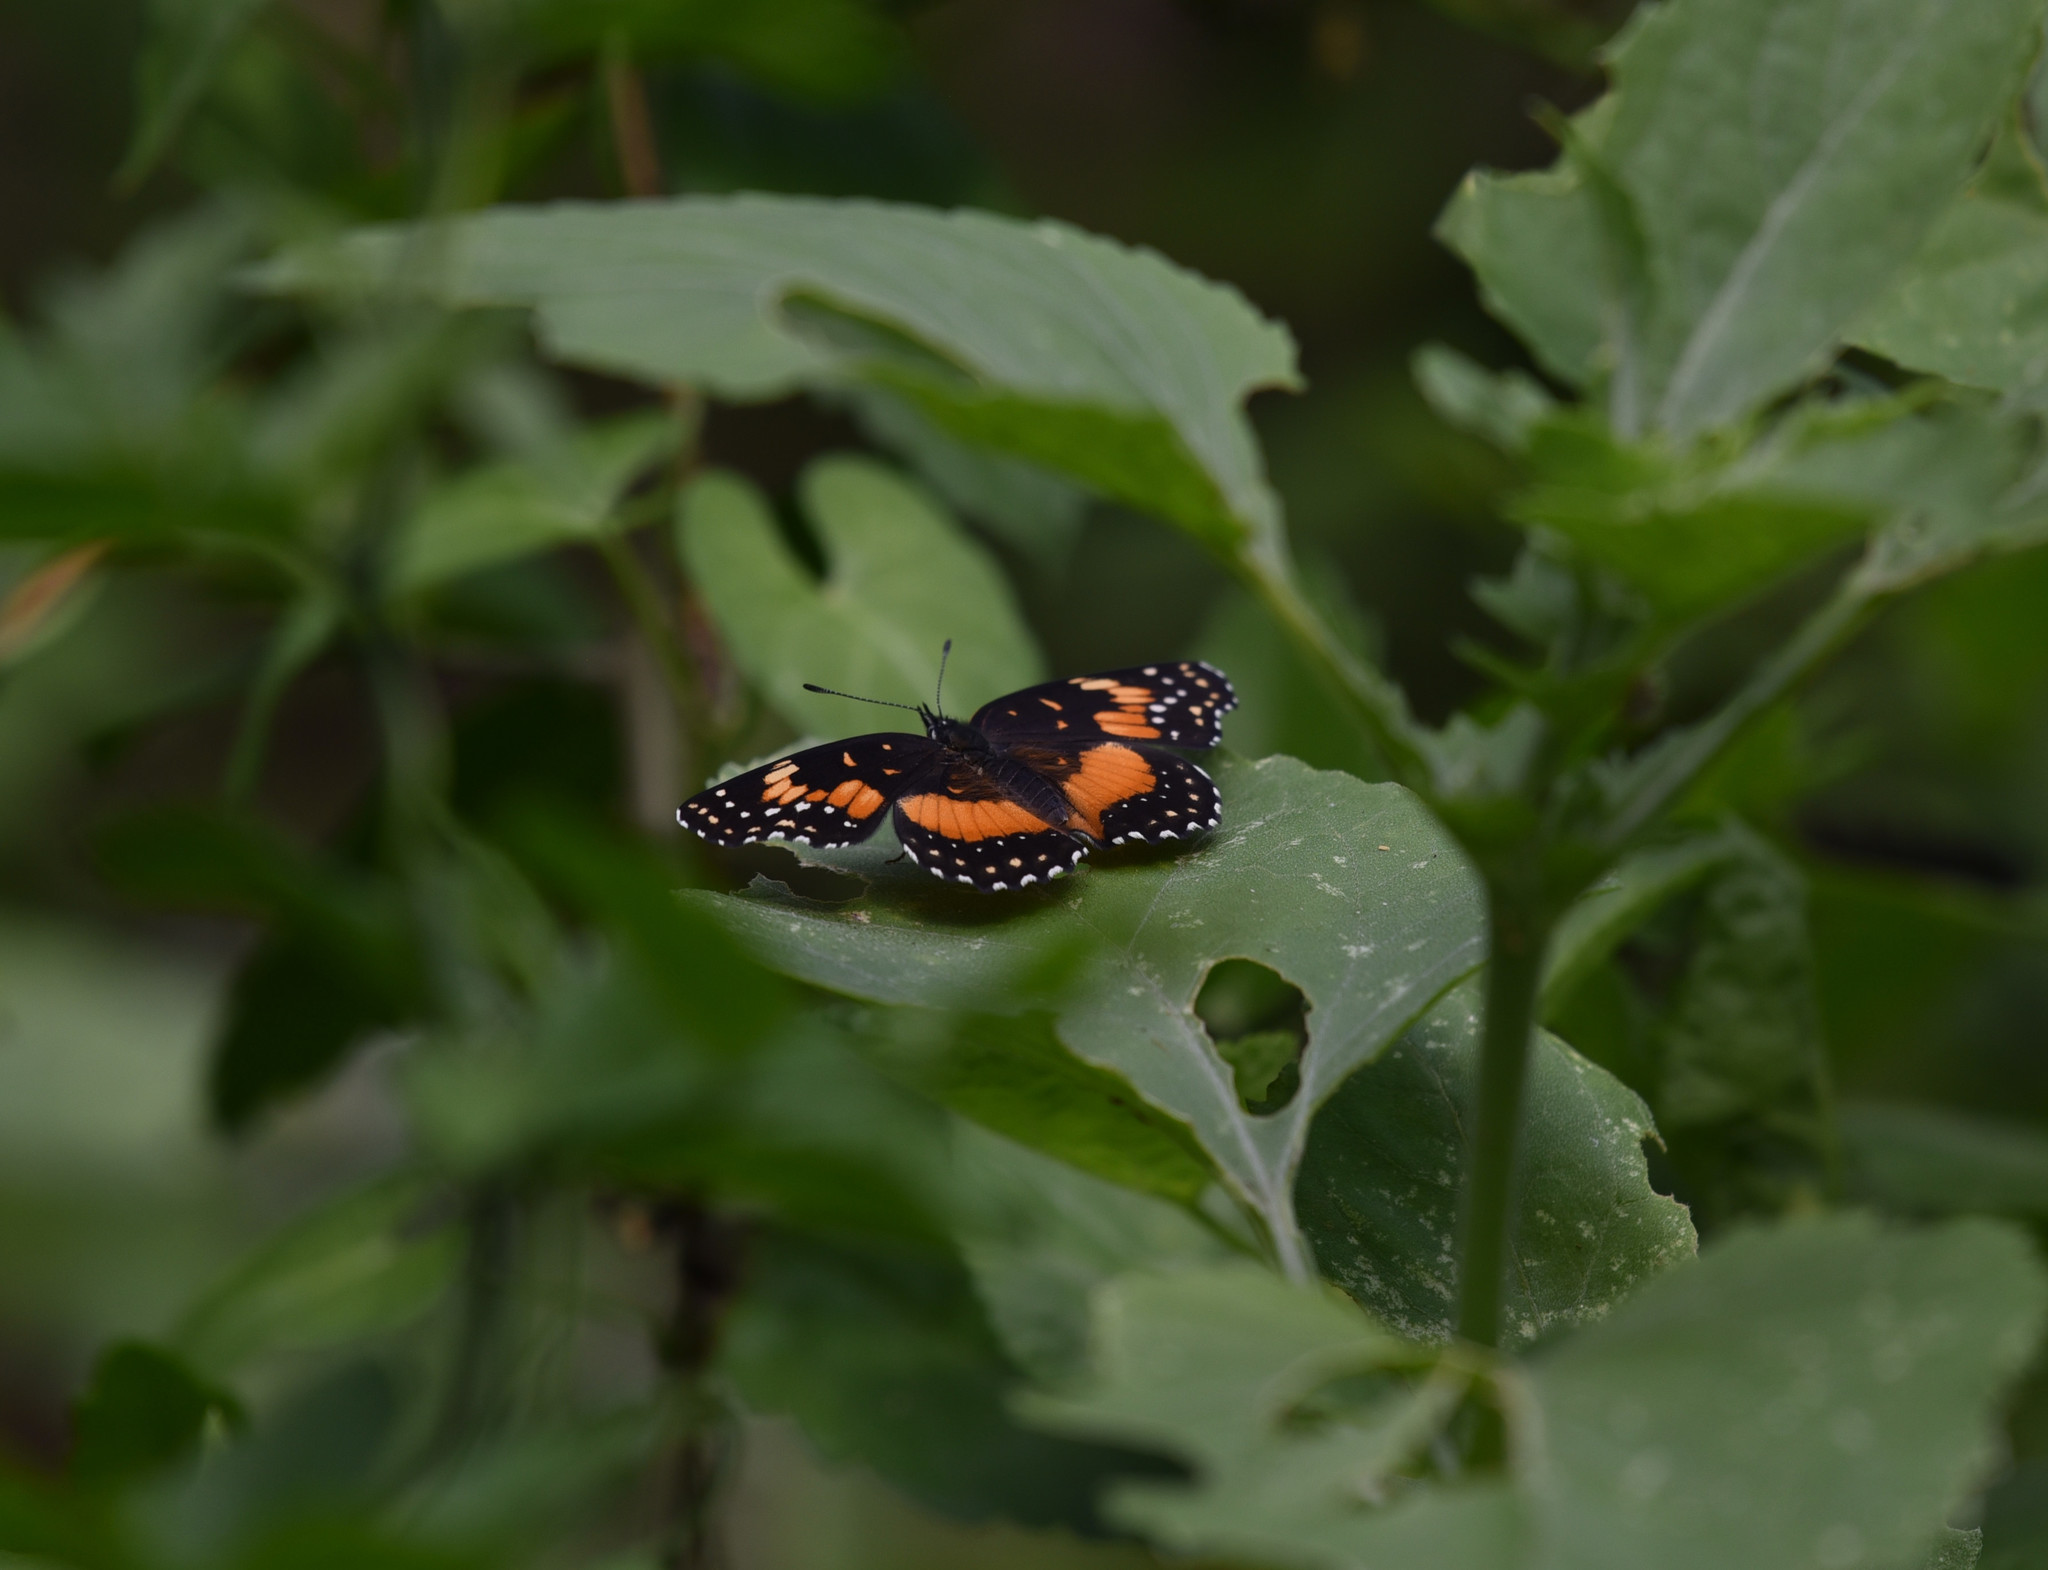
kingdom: Animalia
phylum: Arthropoda
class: Insecta
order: Lepidoptera
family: Nymphalidae
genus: Chlosyne
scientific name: Chlosyne lacinia
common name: Bordered patch
